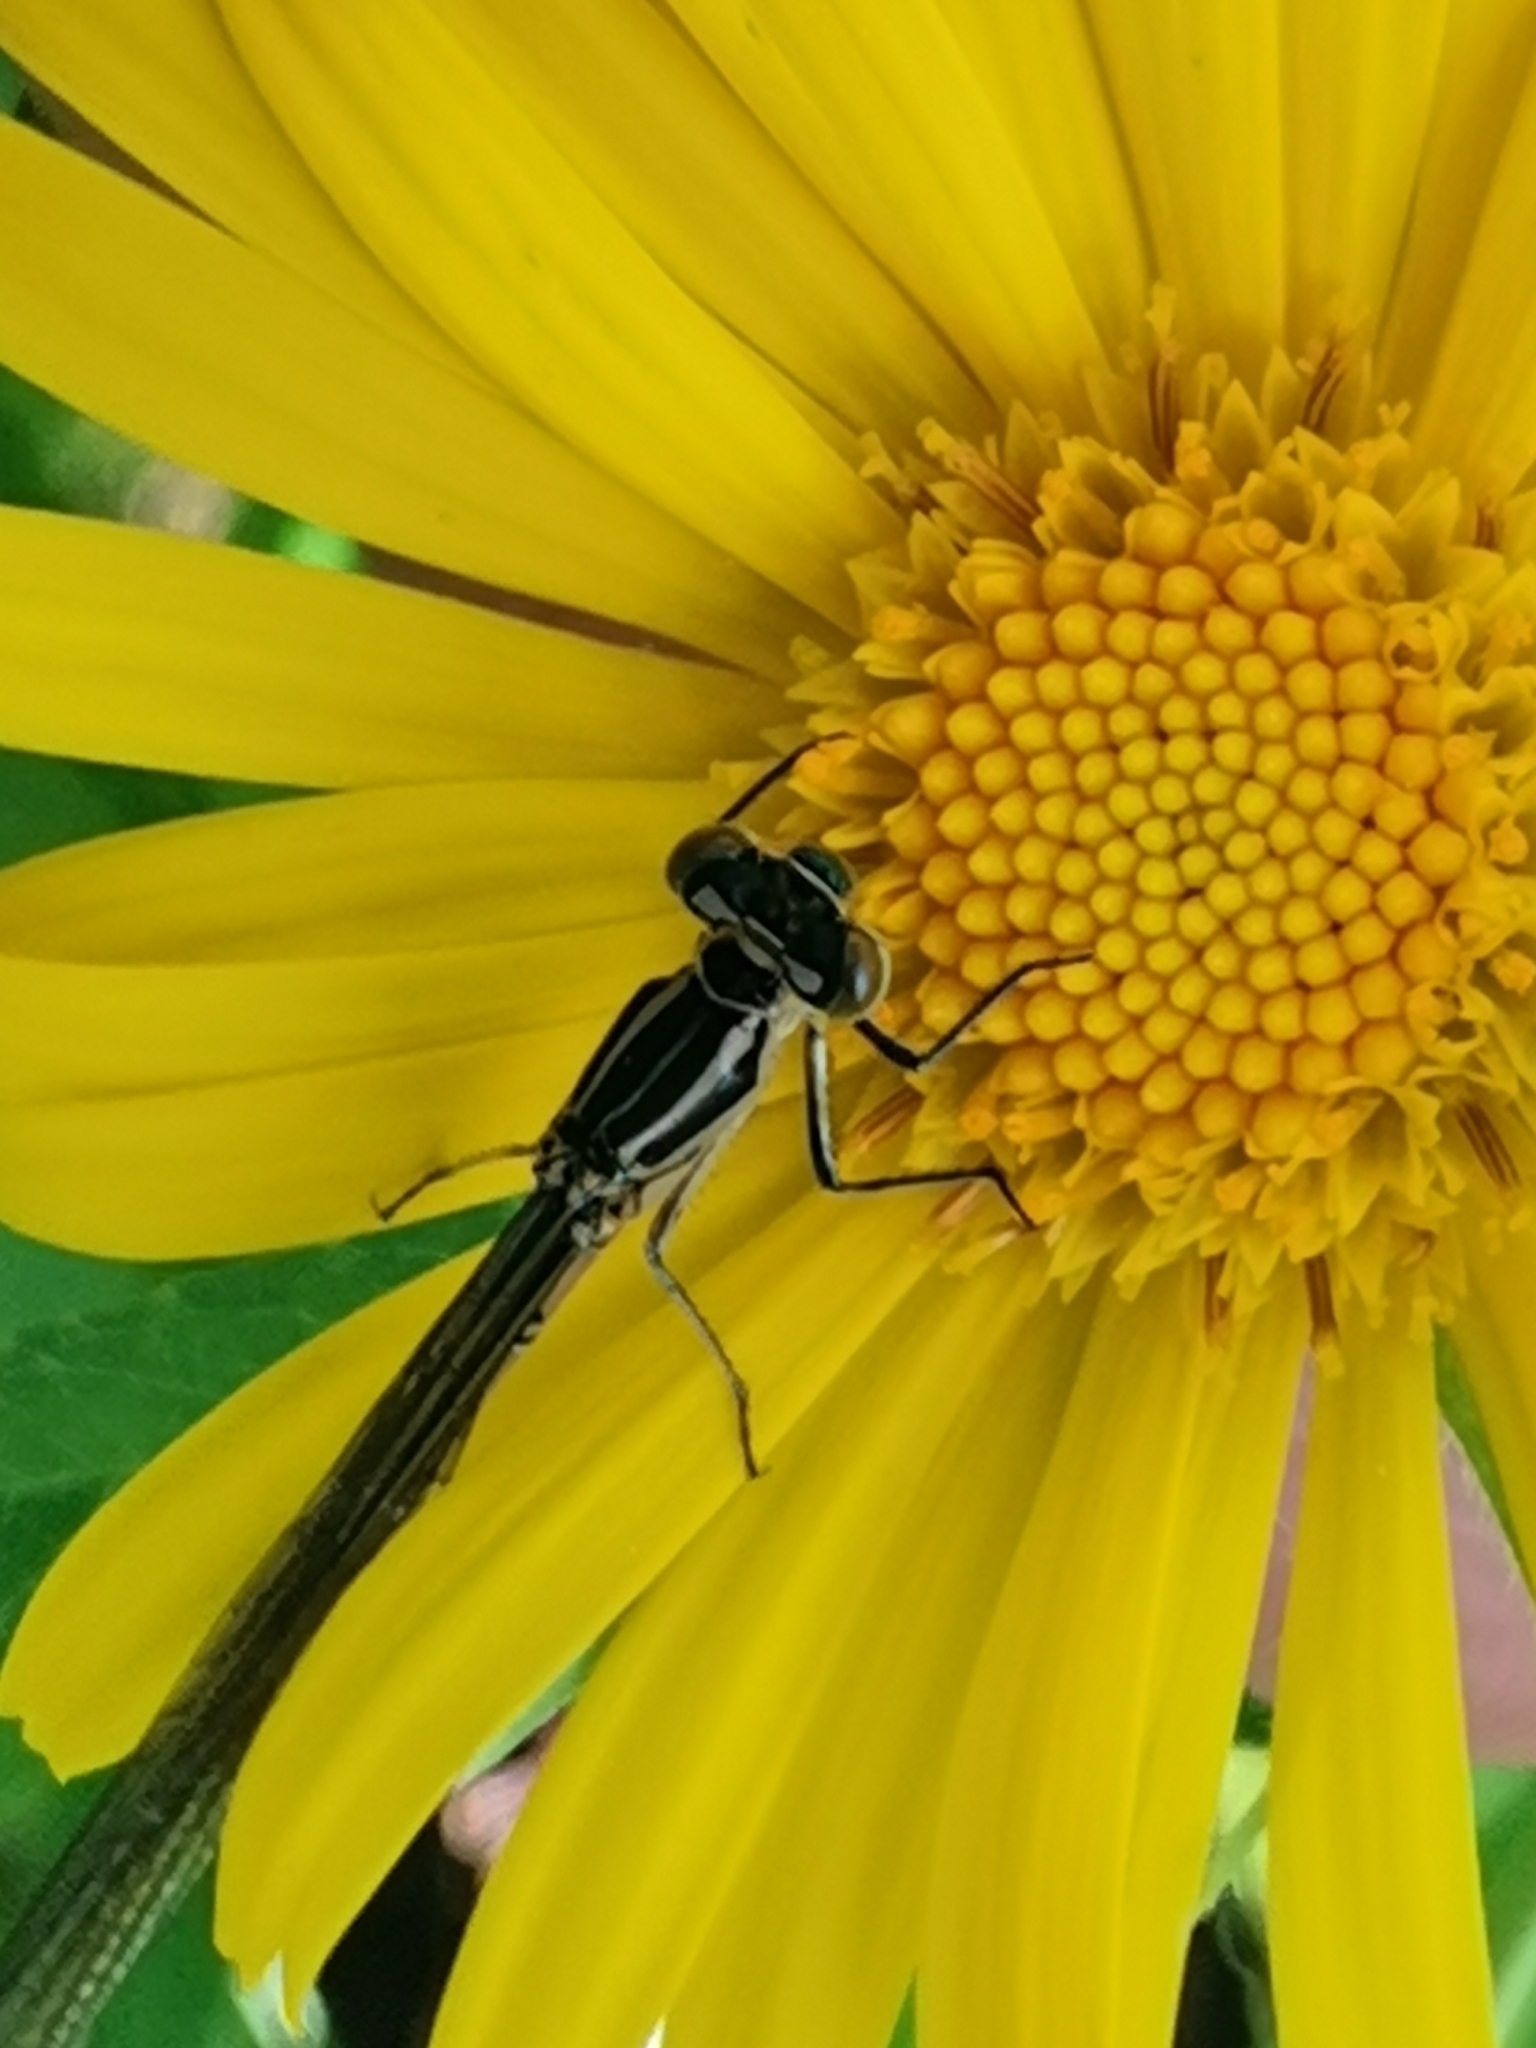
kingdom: Animalia
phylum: Arthropoda
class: Insecta
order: Odonata
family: Coenagrionidae
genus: Coenagrion
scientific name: Coenagrion hastulatum
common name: Spearhead bluet
